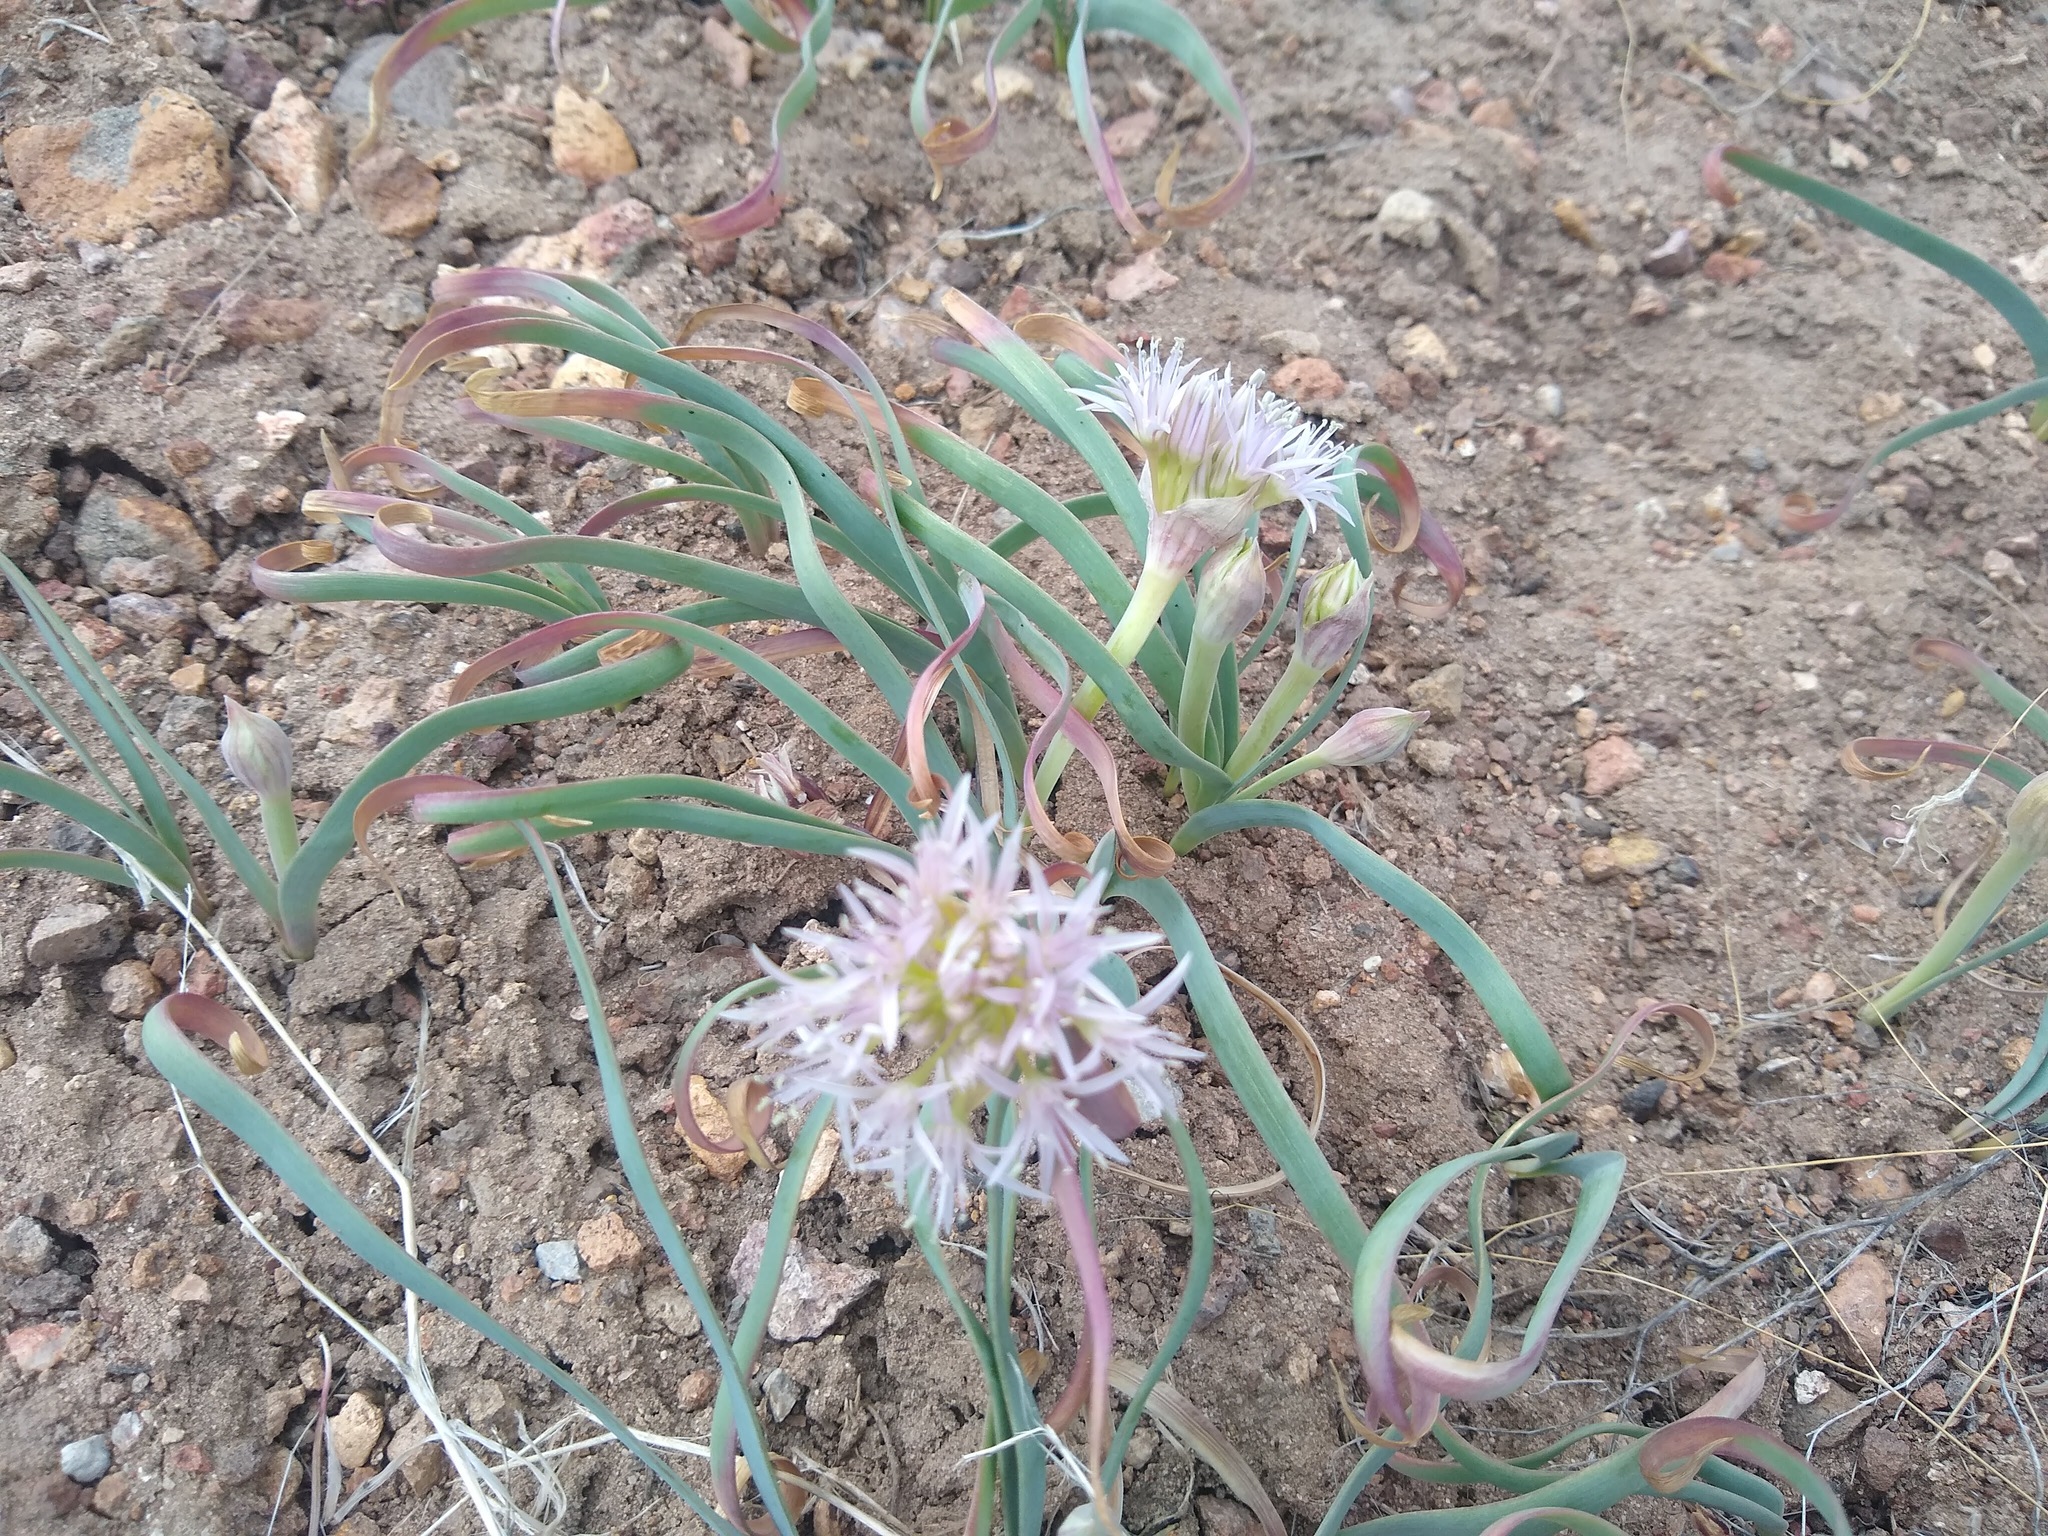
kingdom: Plantae
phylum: Tracheophyta
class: Liliopsida
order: Asparagales
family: Amaryllidaceae
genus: Allium
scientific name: Allium anceps
